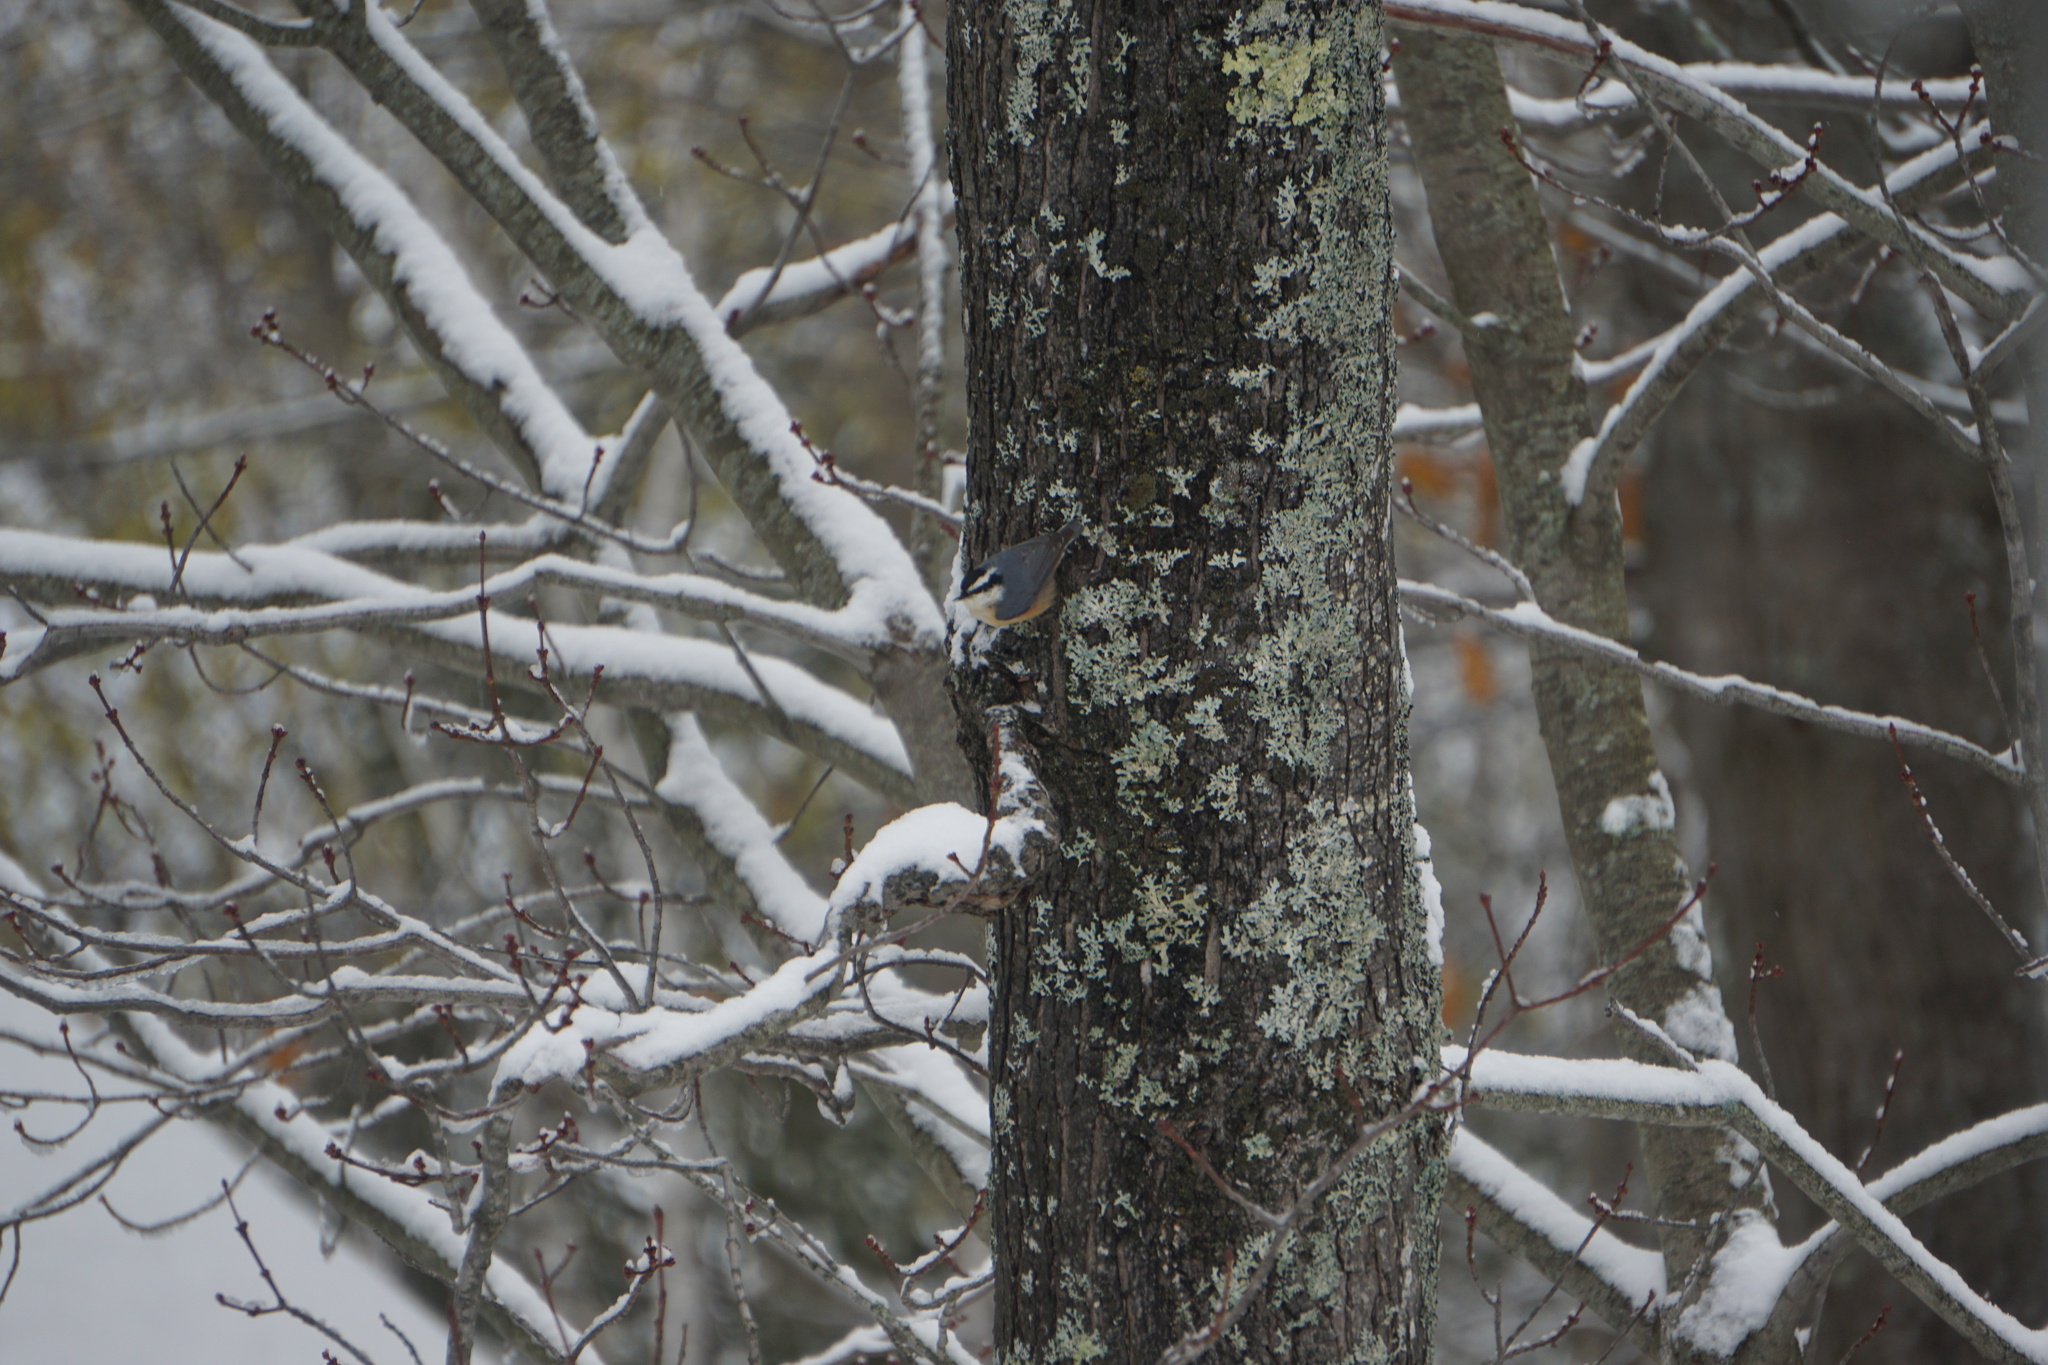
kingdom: Animalia
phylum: Chordata
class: Aves
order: Passeriformes
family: Sittidae
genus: Sitta
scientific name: Sitta canadensis
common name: Red-breasted nuthatch
